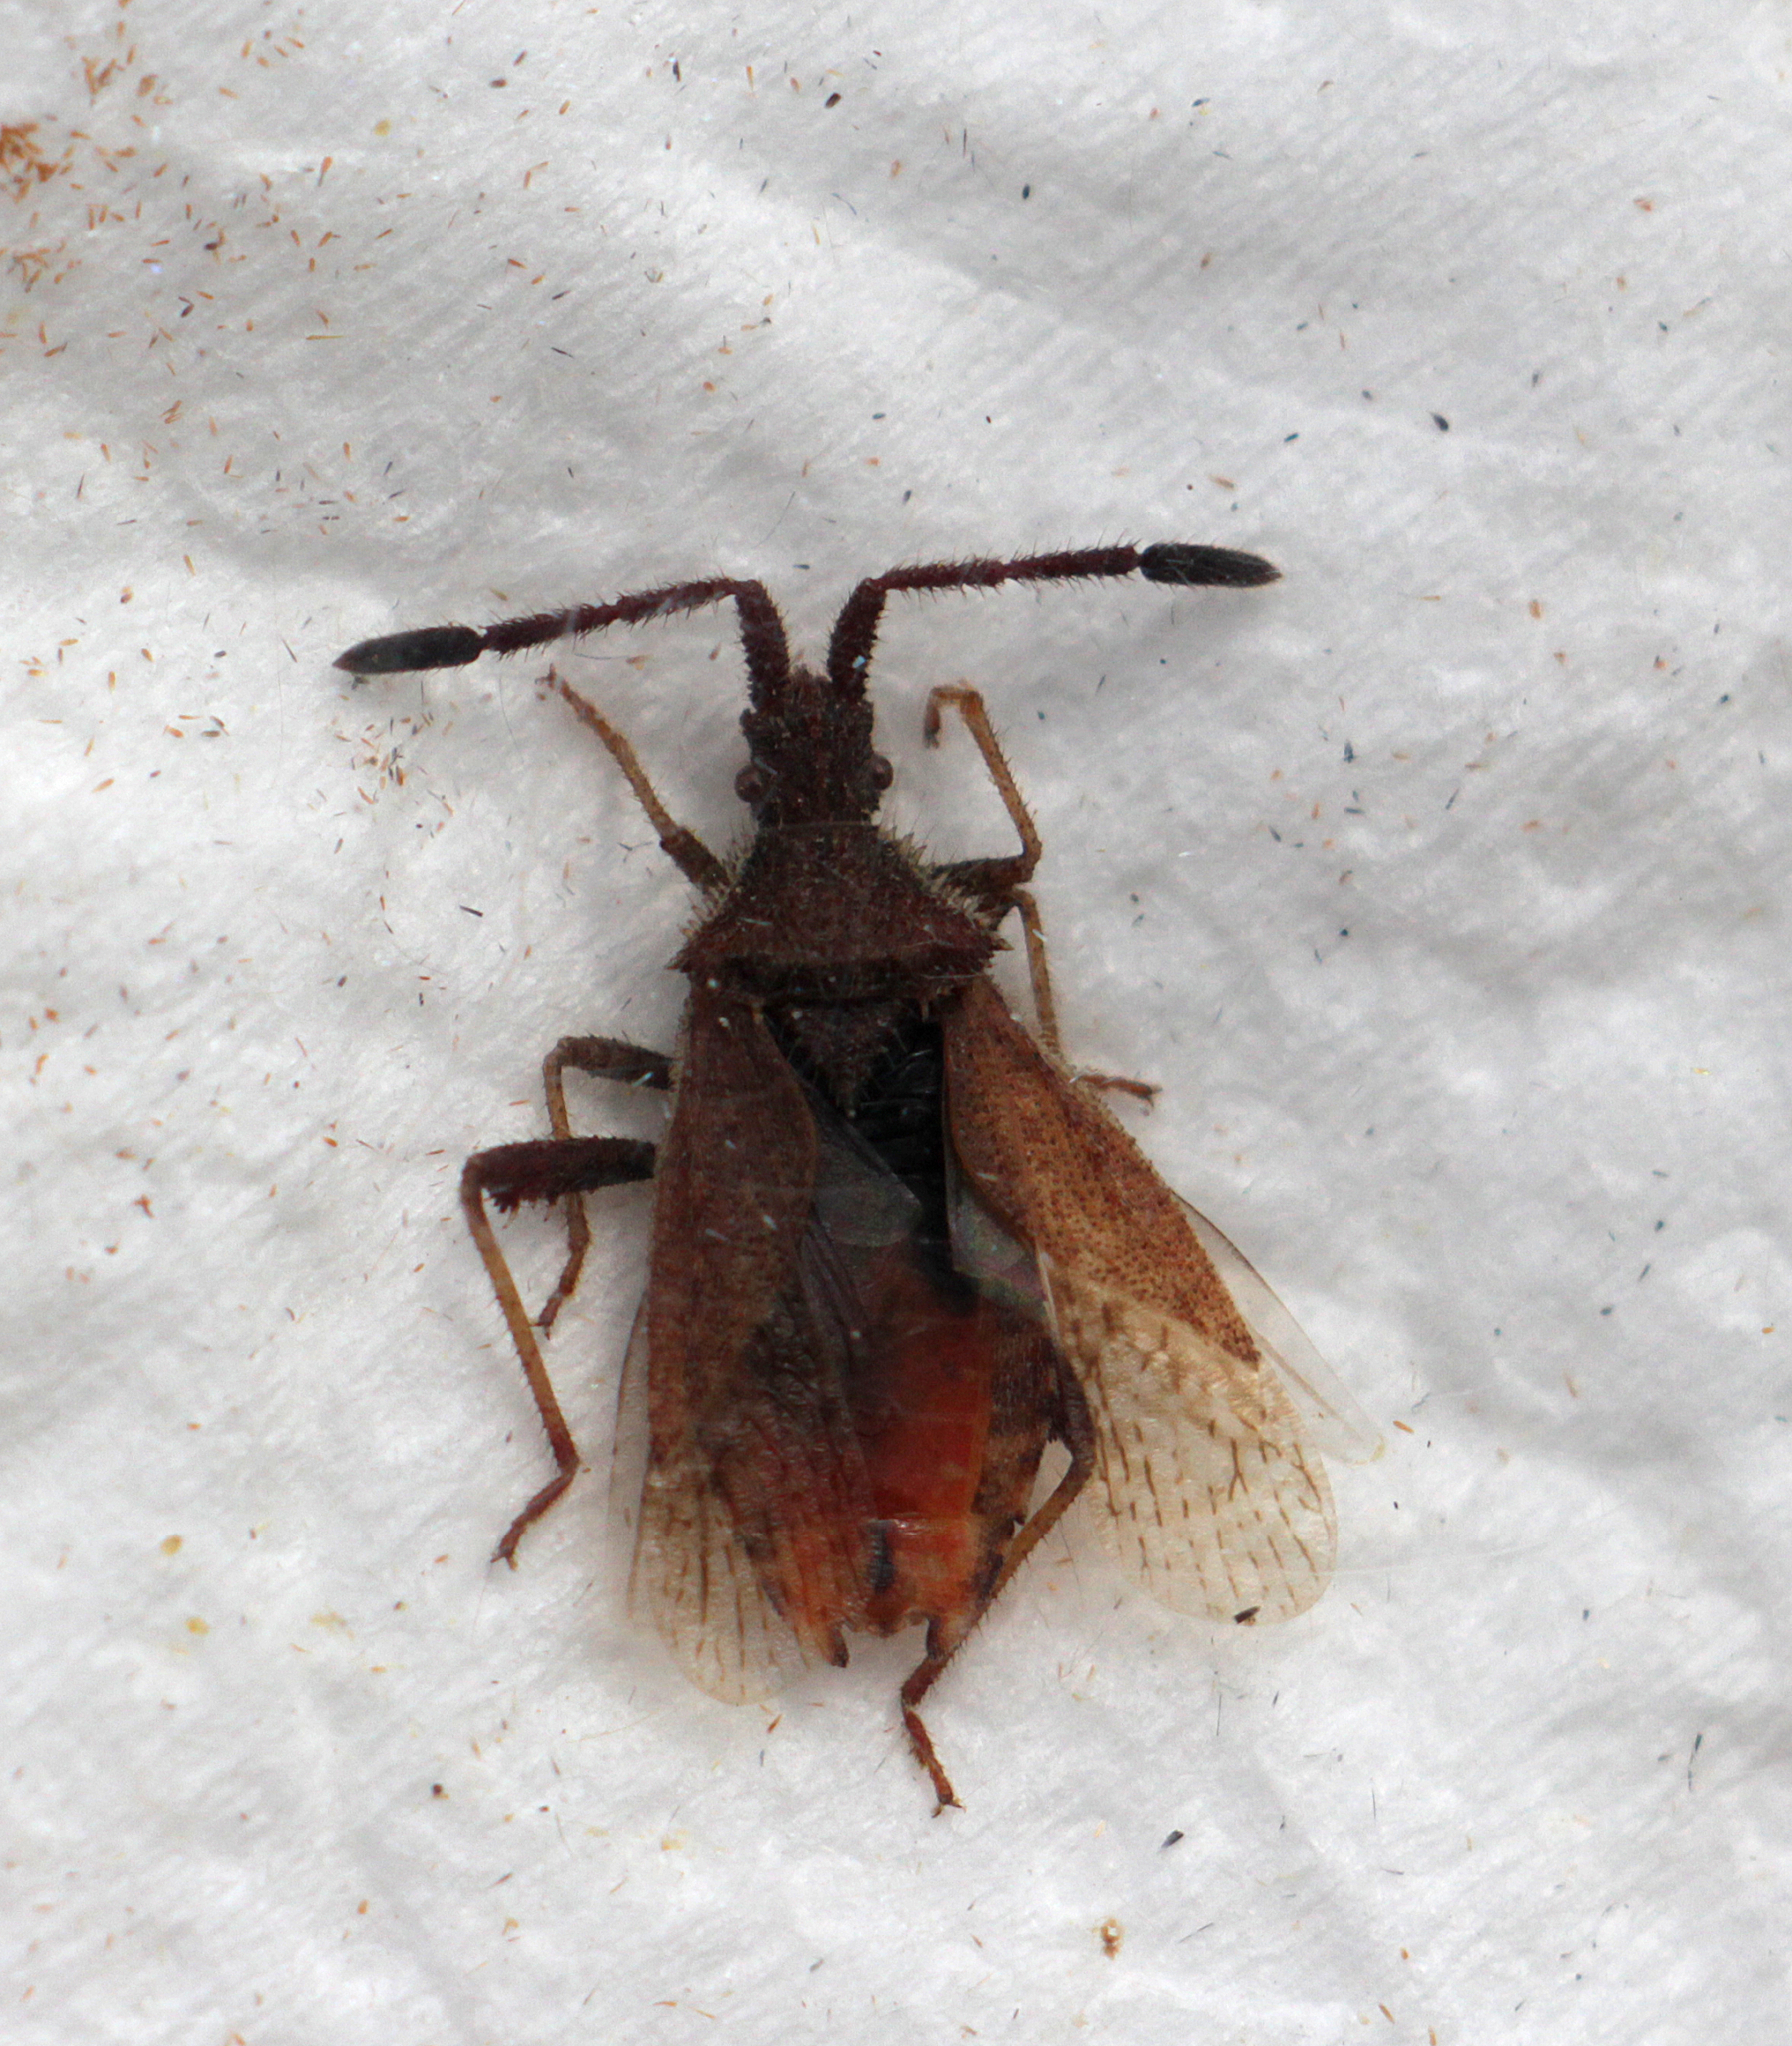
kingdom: Animalia
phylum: Arthropoda
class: Insecta
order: Hemiptera
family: Coreidae
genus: Coriomeris
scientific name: Coriomeris denticulatus
